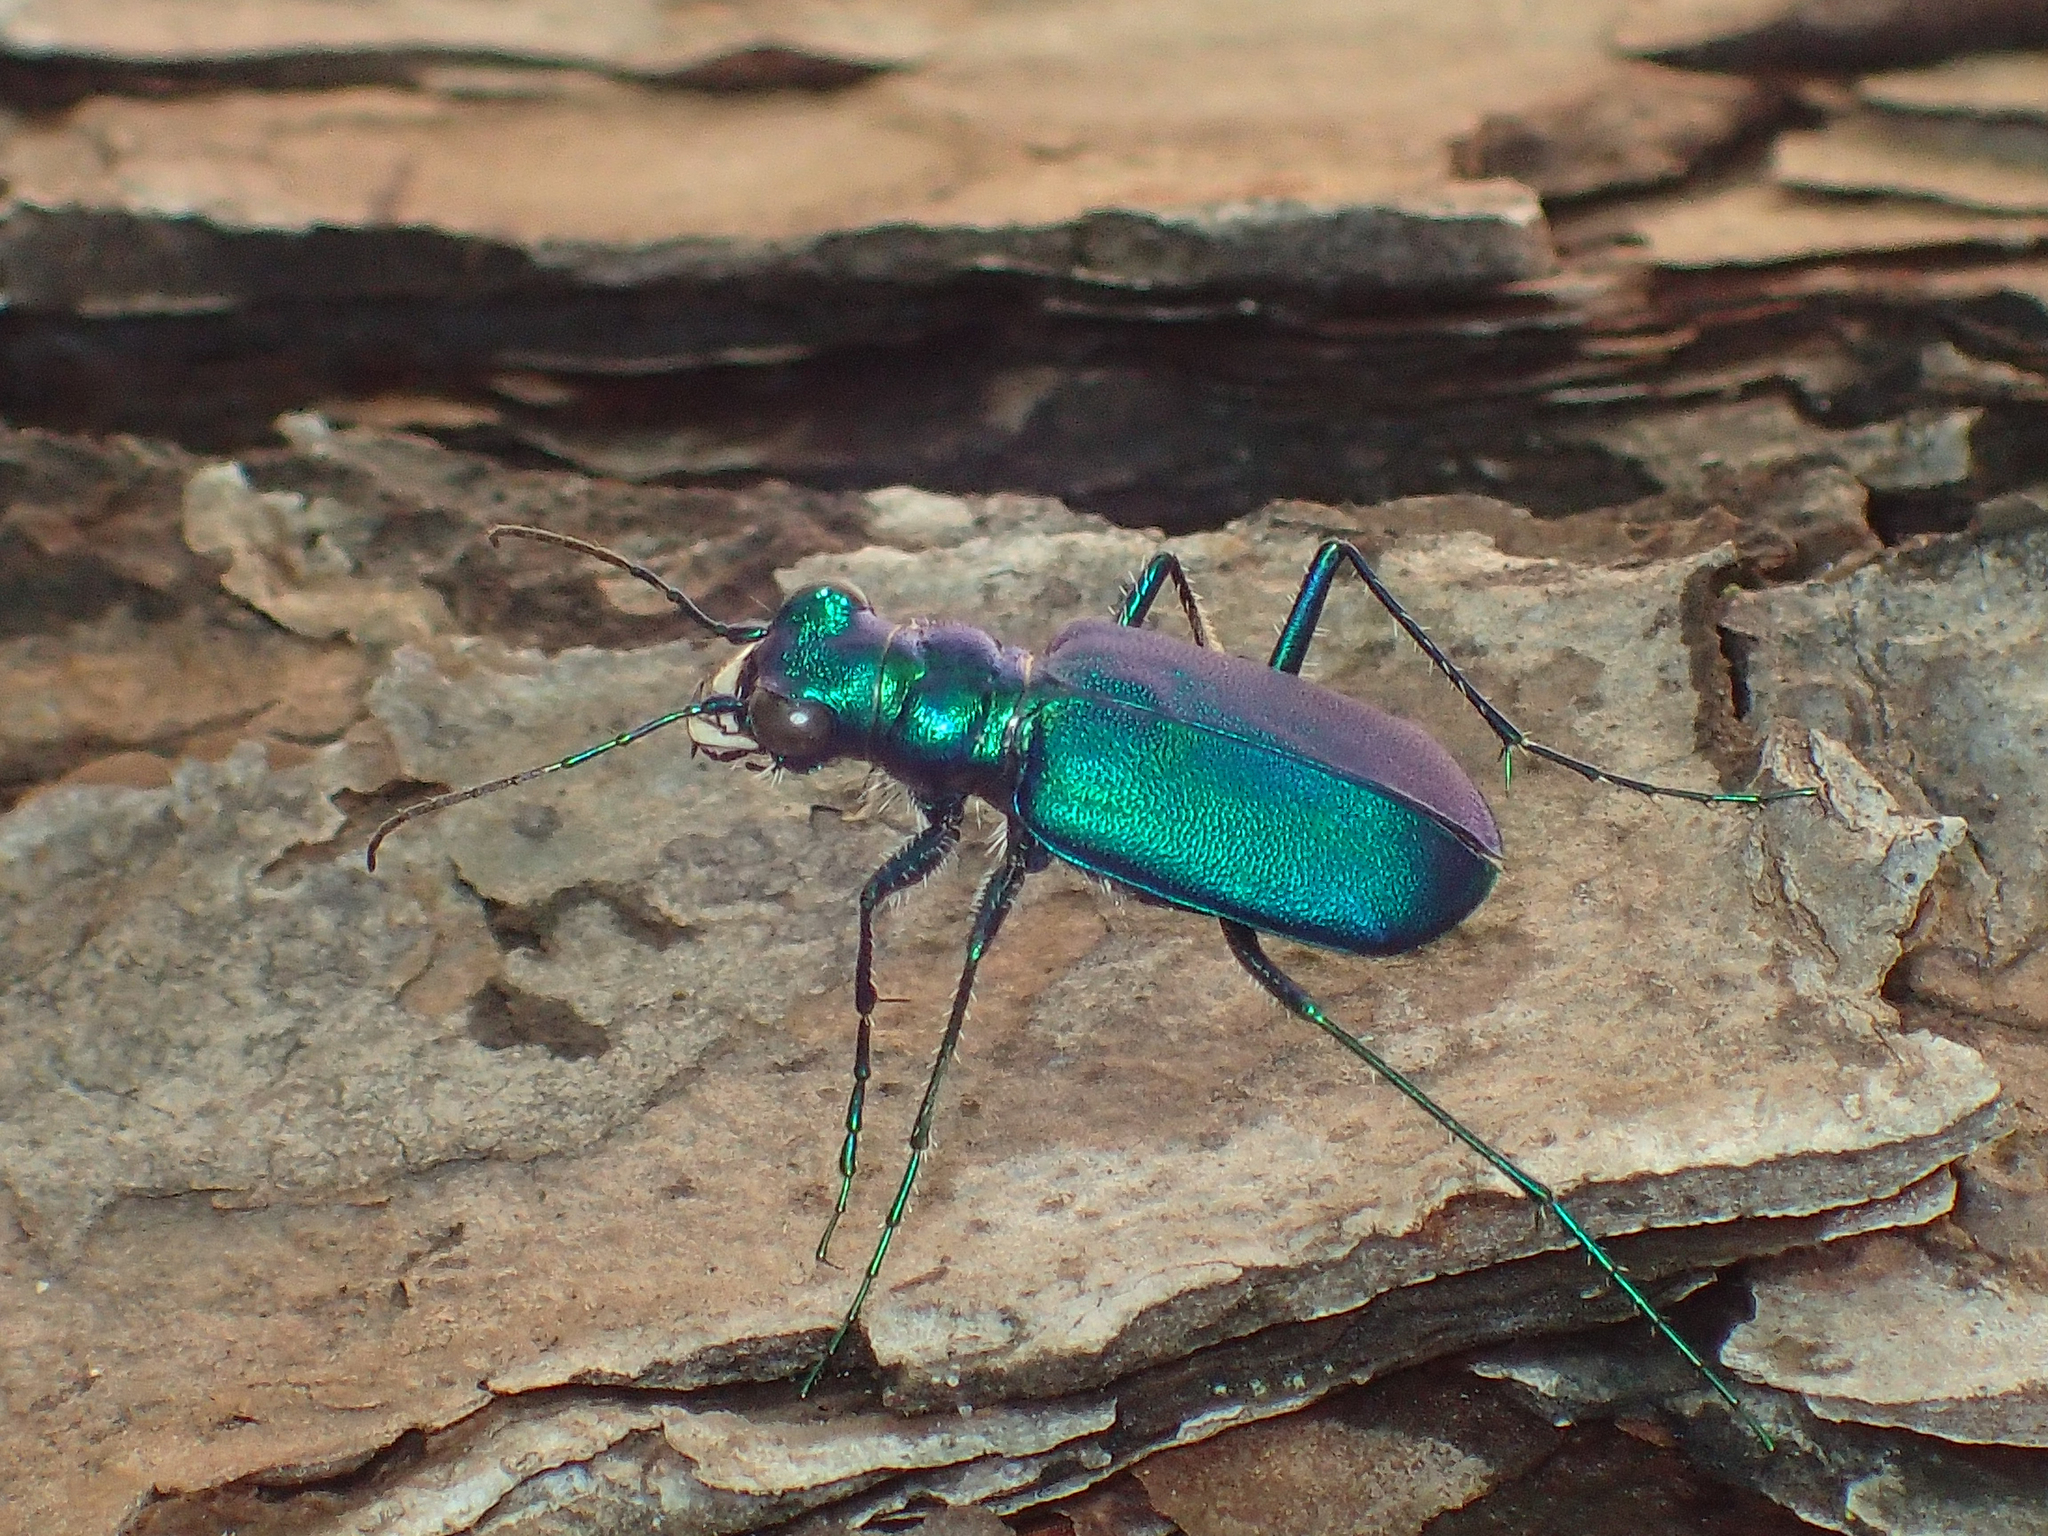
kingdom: Animalia
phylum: Arthropoda
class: Insecta
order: Coleoptera
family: Carabidae
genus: Cicindela
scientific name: Cicindela sexguttata
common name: Six-spotted tiger beetle
